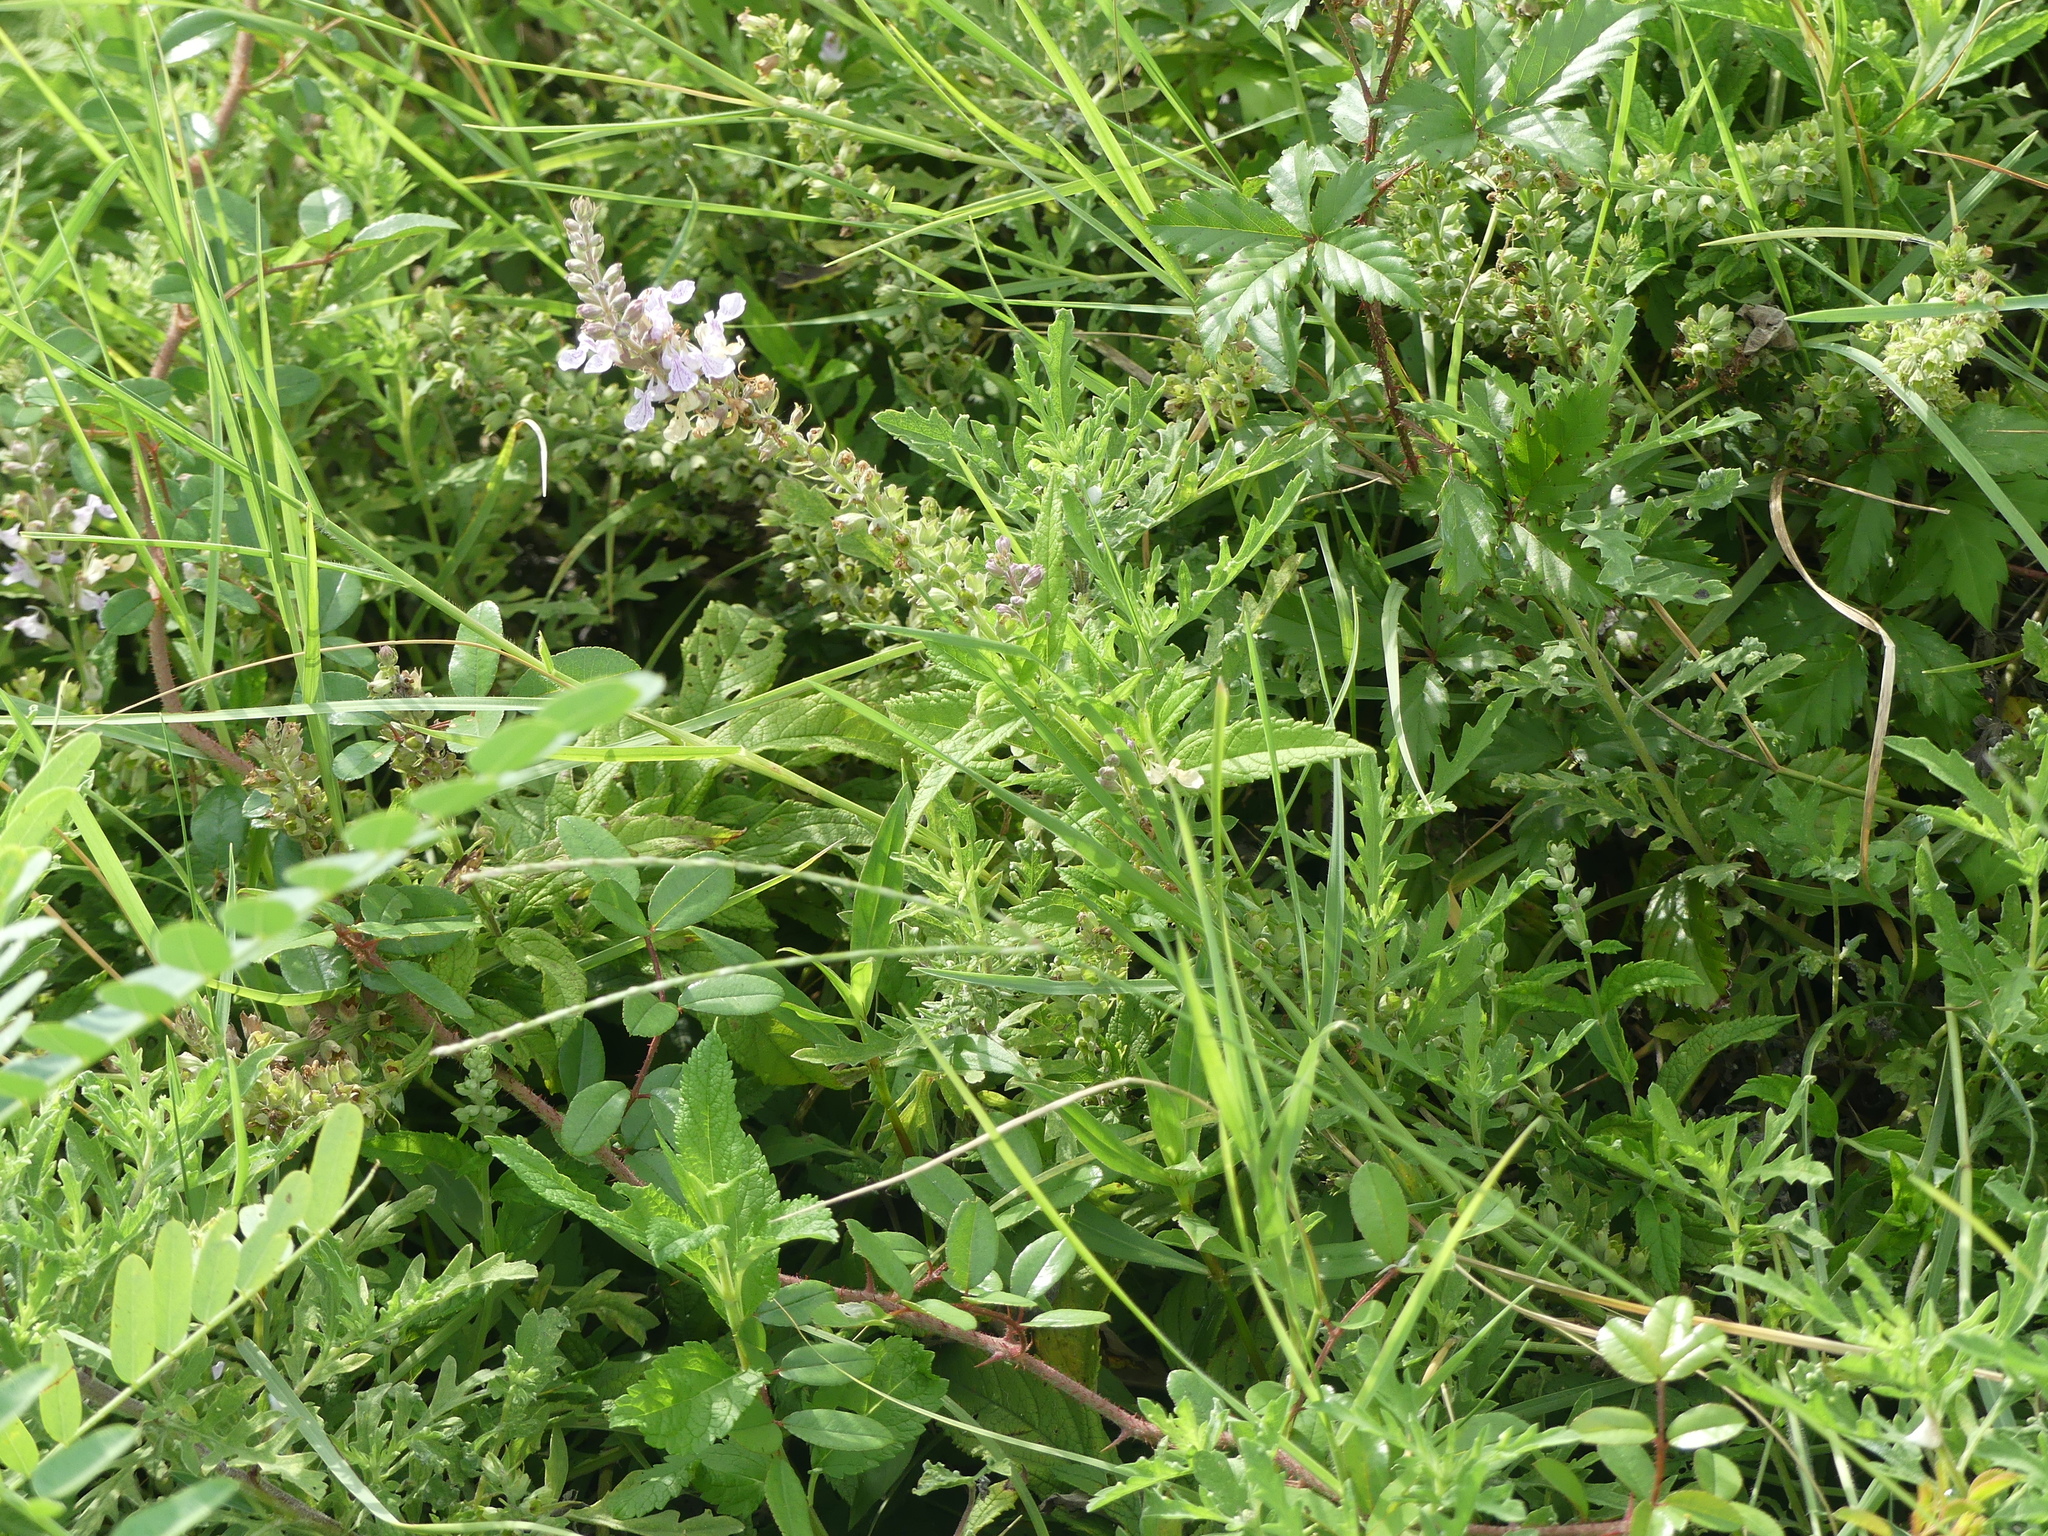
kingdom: Plantae
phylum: Tracheophyta
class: Magnoliopsida
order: Lamiales
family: Lamiaceae
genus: Teucrium
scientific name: Teucrium canadense
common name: American germander
